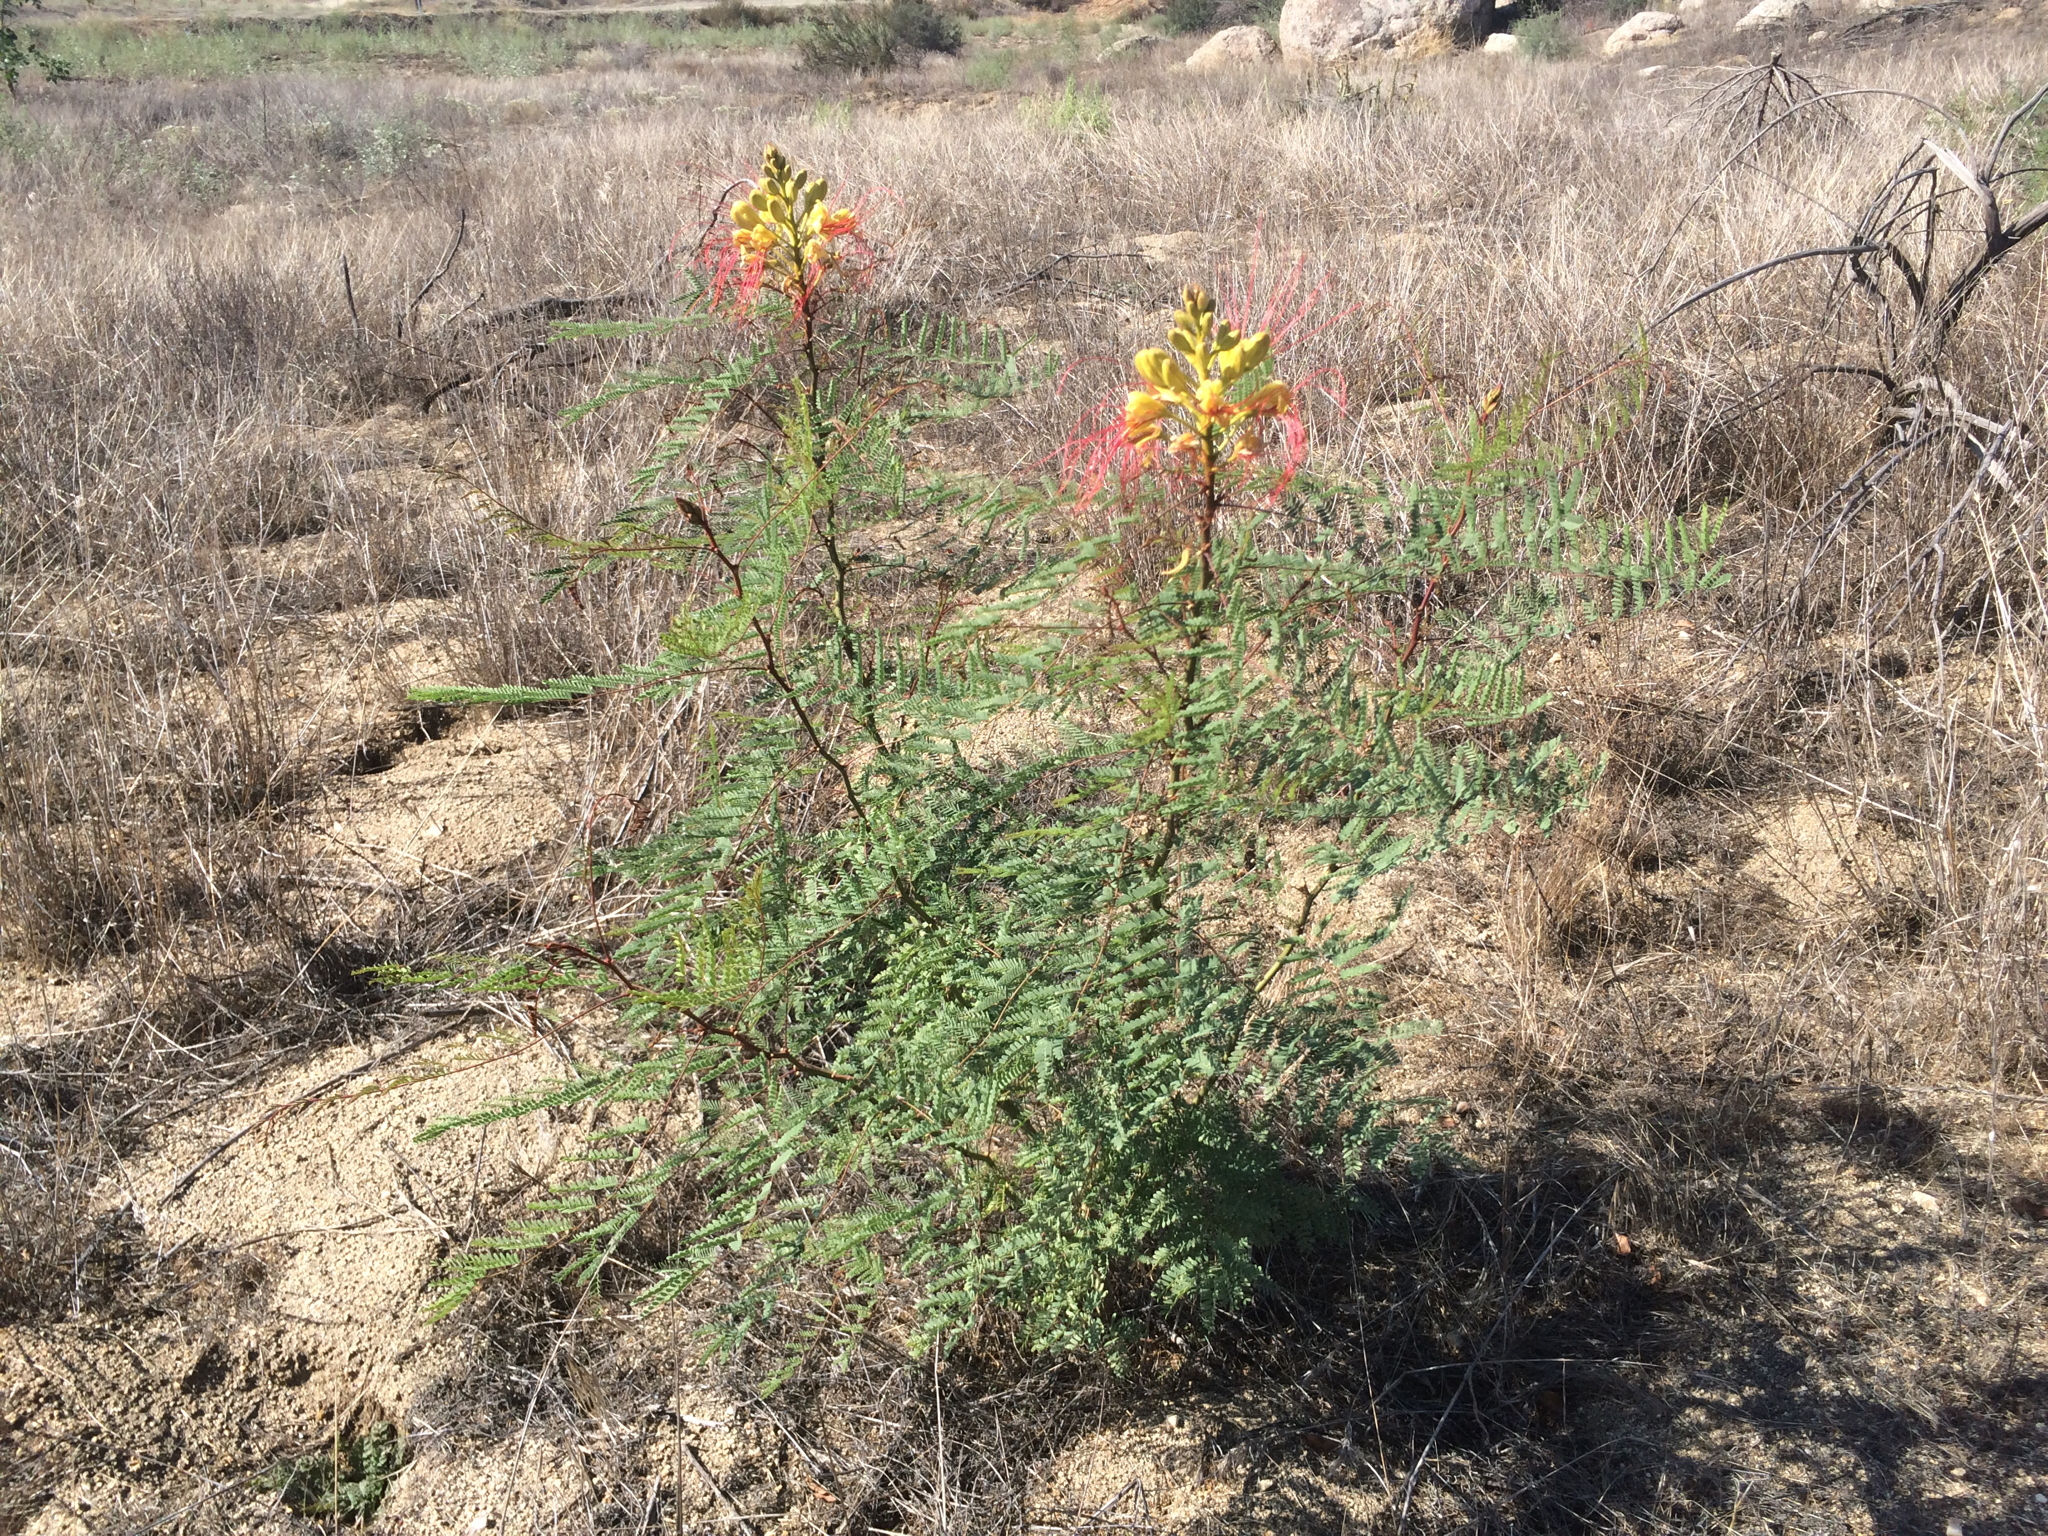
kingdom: Plantae
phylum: Tracheophyta
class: Magnoliopsida
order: Fabales
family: Fabaceae
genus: Erythrostemon
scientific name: Erythrostemon gilliesii
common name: Bird-of-paradise shrub
